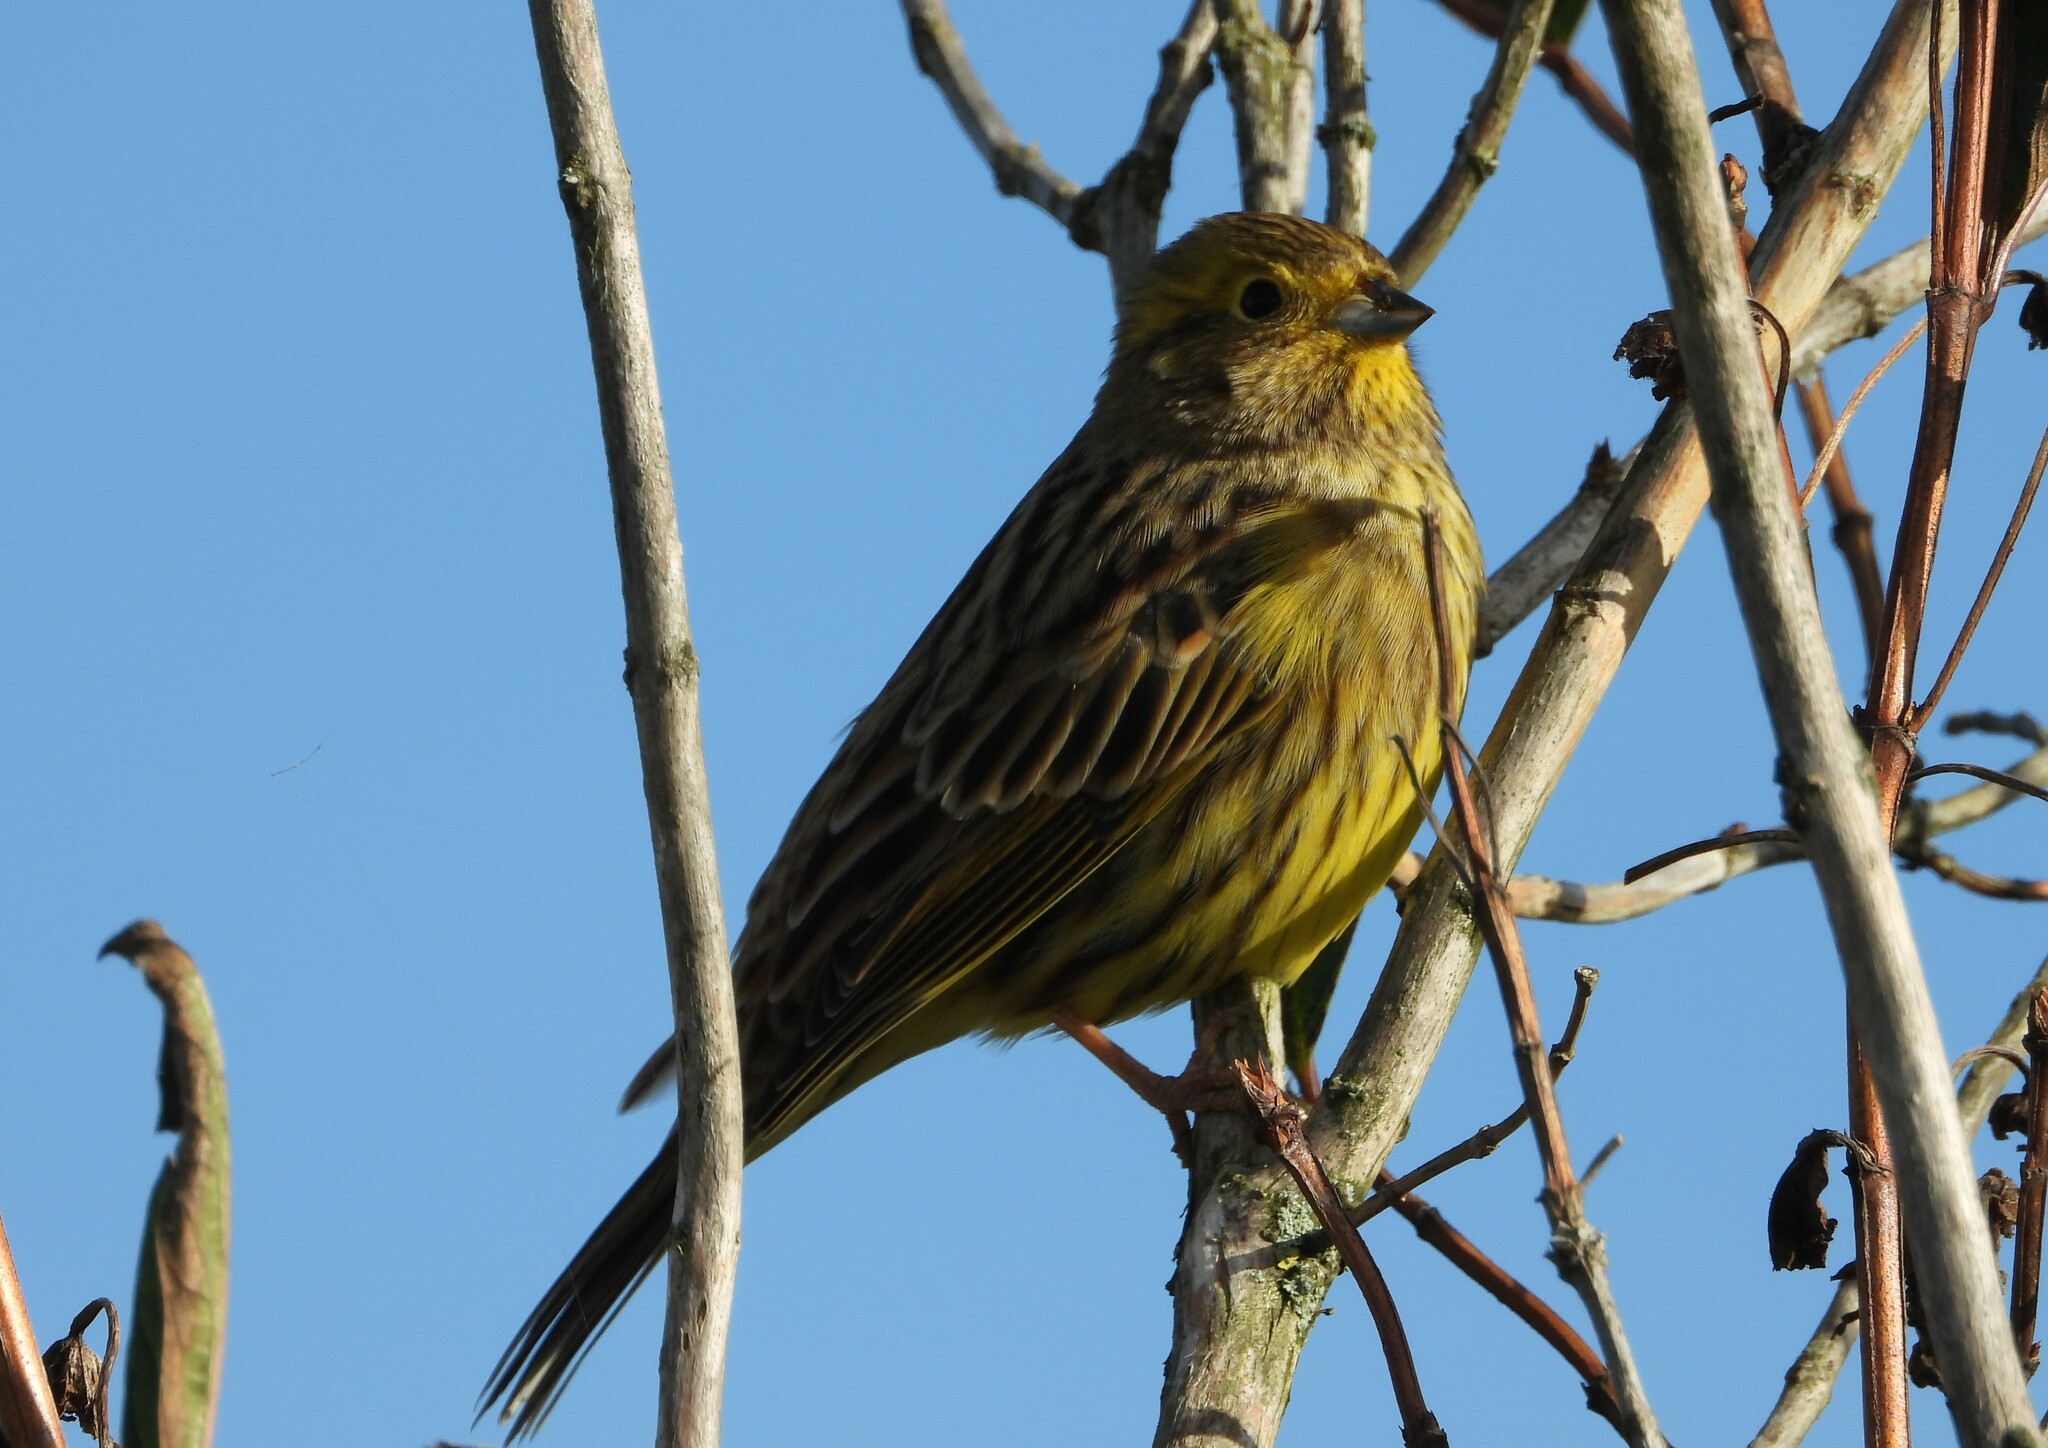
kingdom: Animalia
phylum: Chordata
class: Aves
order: Passeriformes
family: Emberizidae
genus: Emberiza
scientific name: Emberiza citrinella
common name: Yellowhammer
